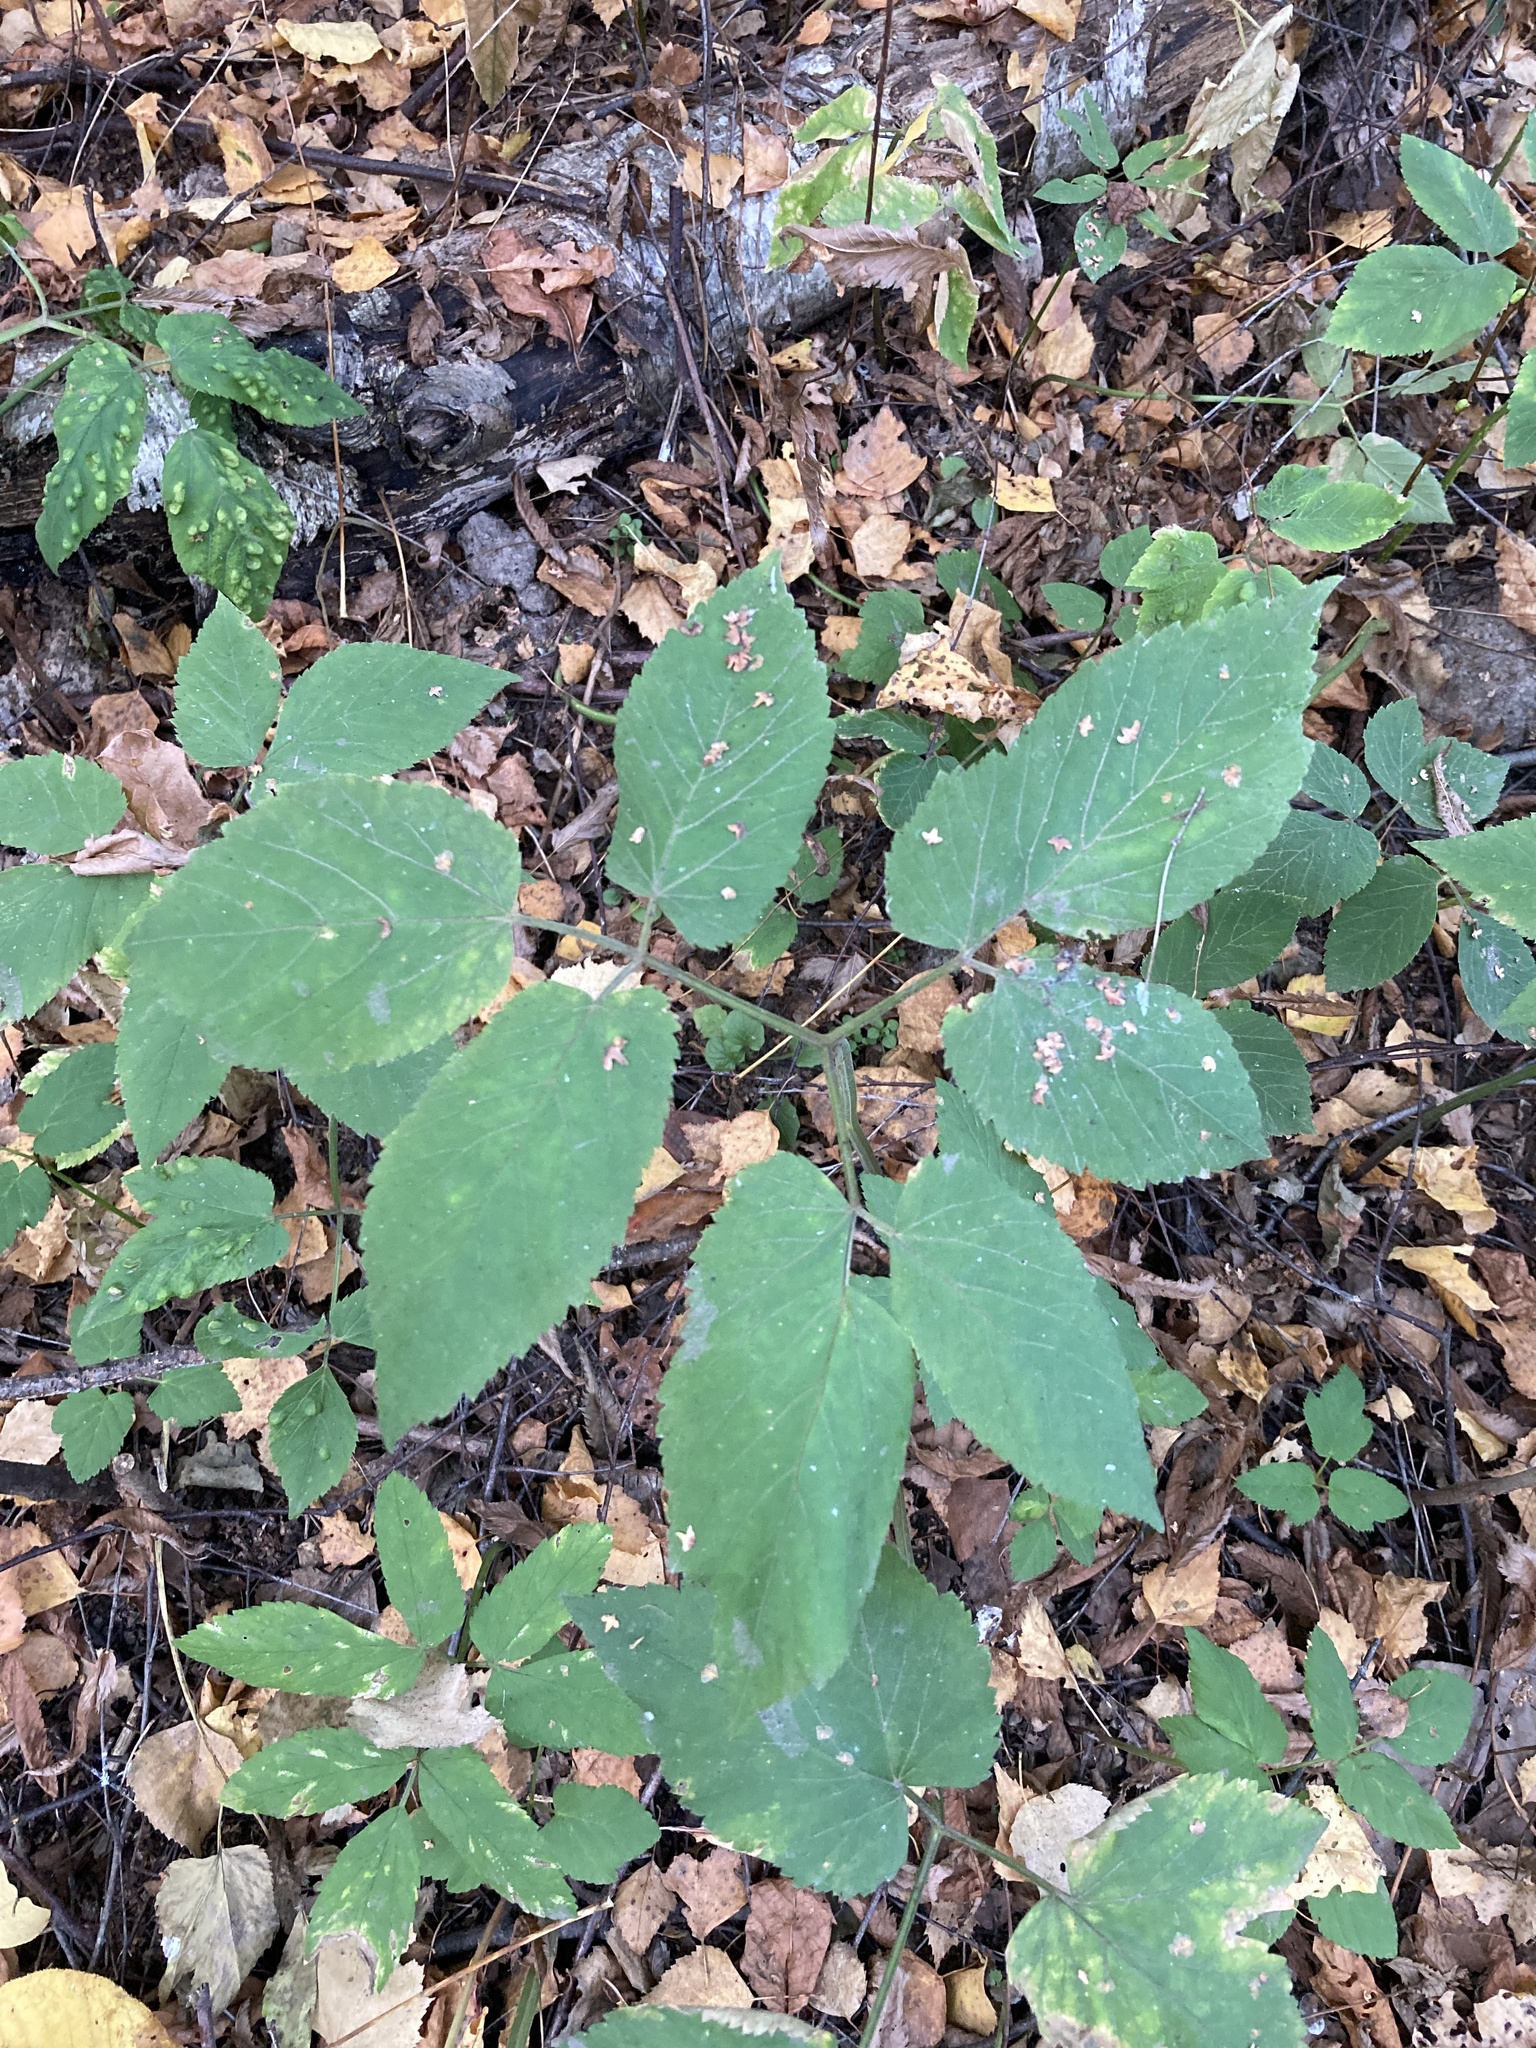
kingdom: Plantae
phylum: Tracheophyta
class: Magnoliopsida
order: Apiales
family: Apiaceae
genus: Aegopodium
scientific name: Aegopodium podagraria
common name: Ground-elder
